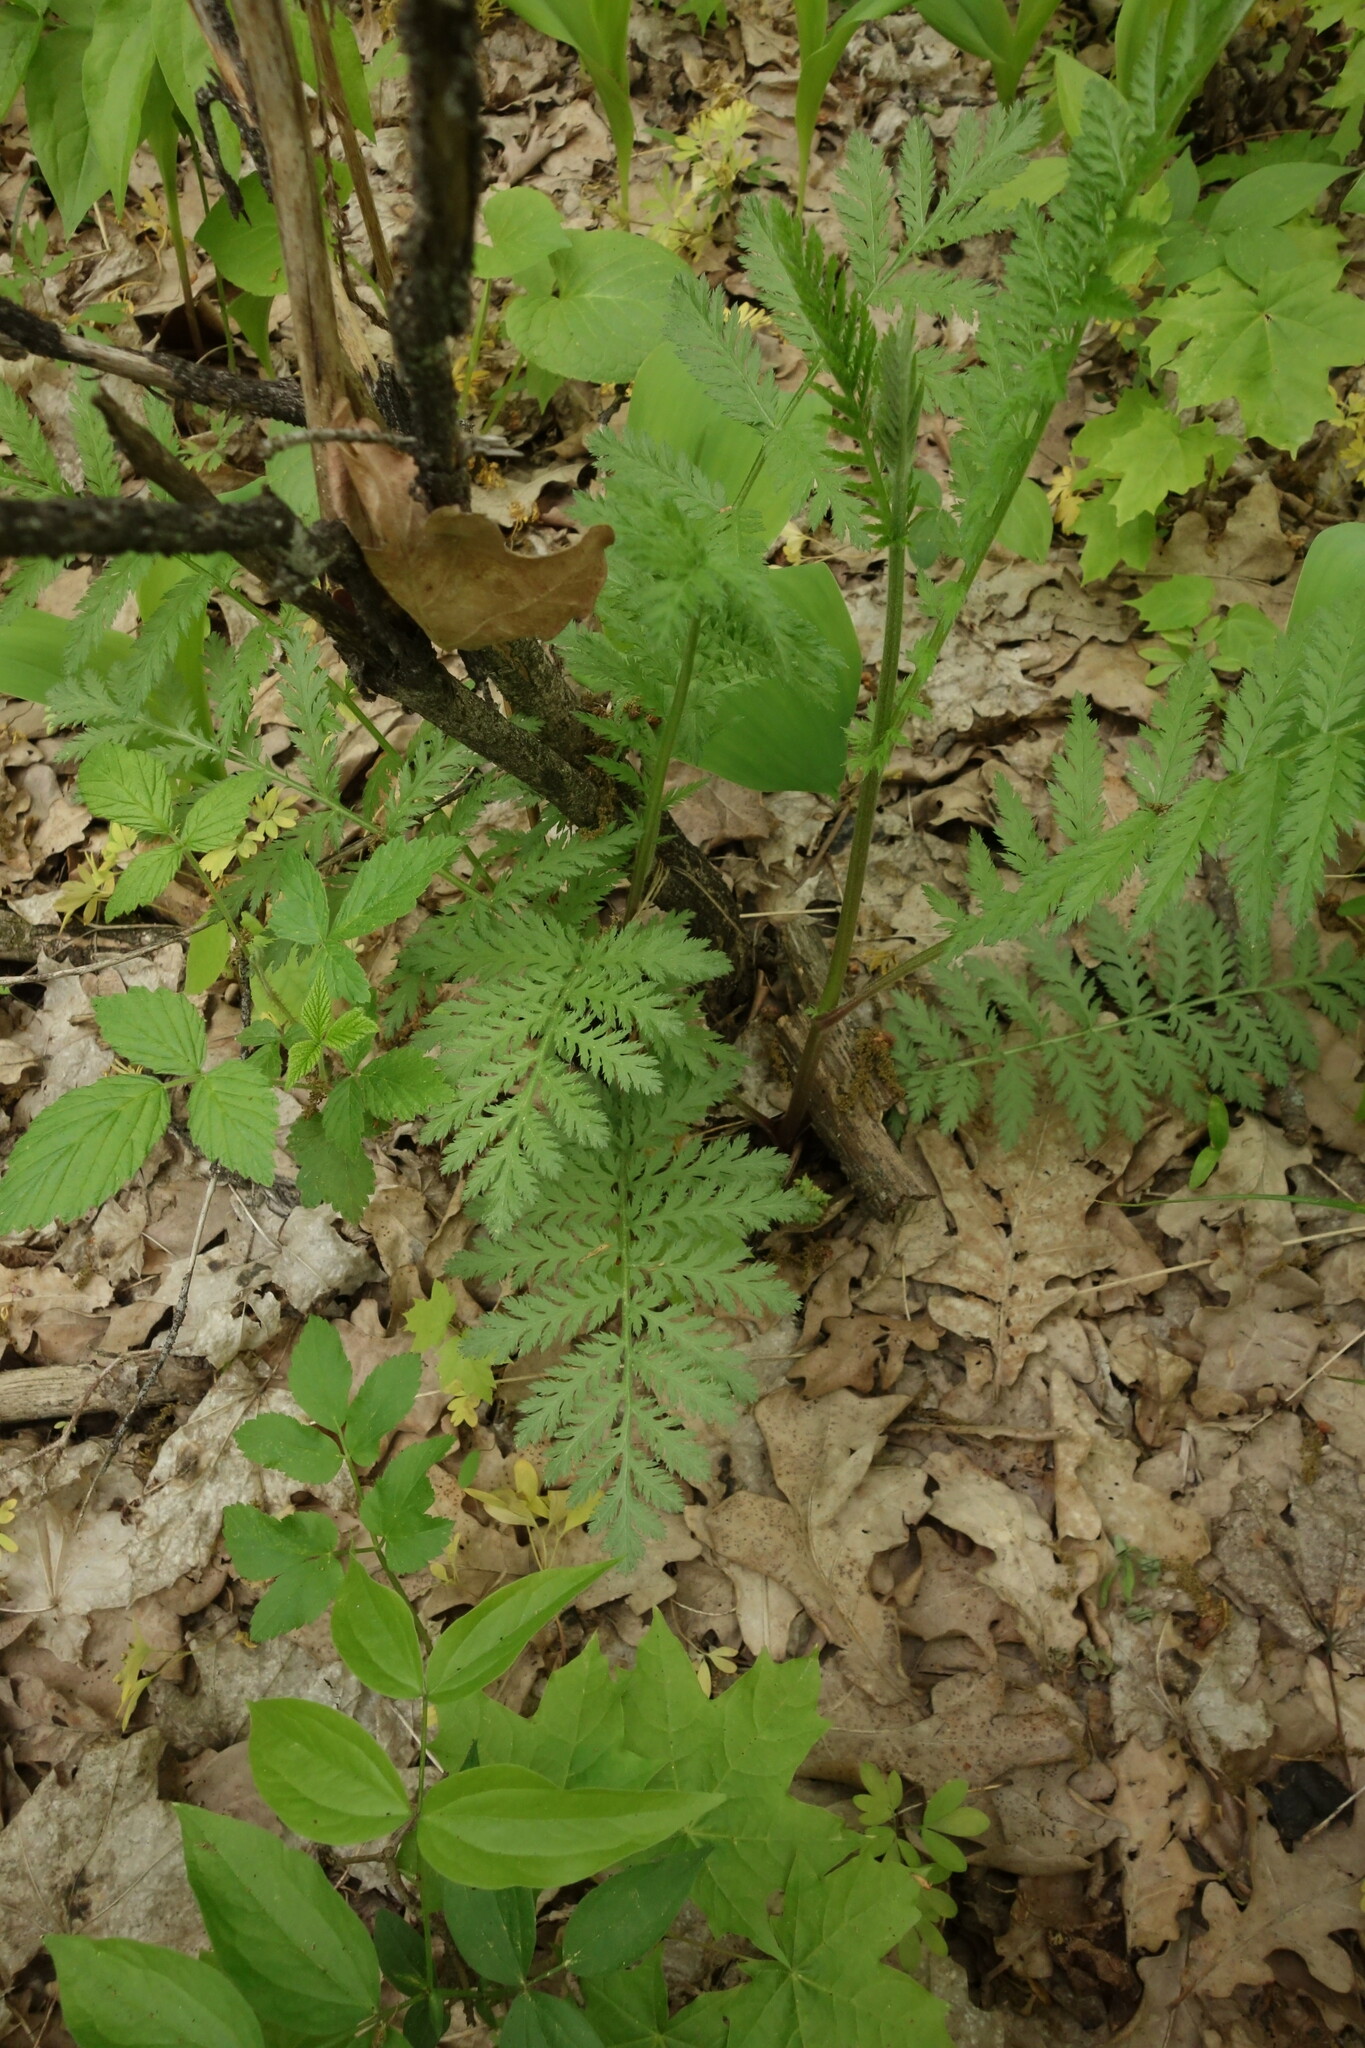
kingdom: Plantae
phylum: Tracheophyta
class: Magnoliopsida
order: Asterales
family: Asteraceae
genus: Tanacetum
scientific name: Tanacetum corymbosum
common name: Scentless feverfew
